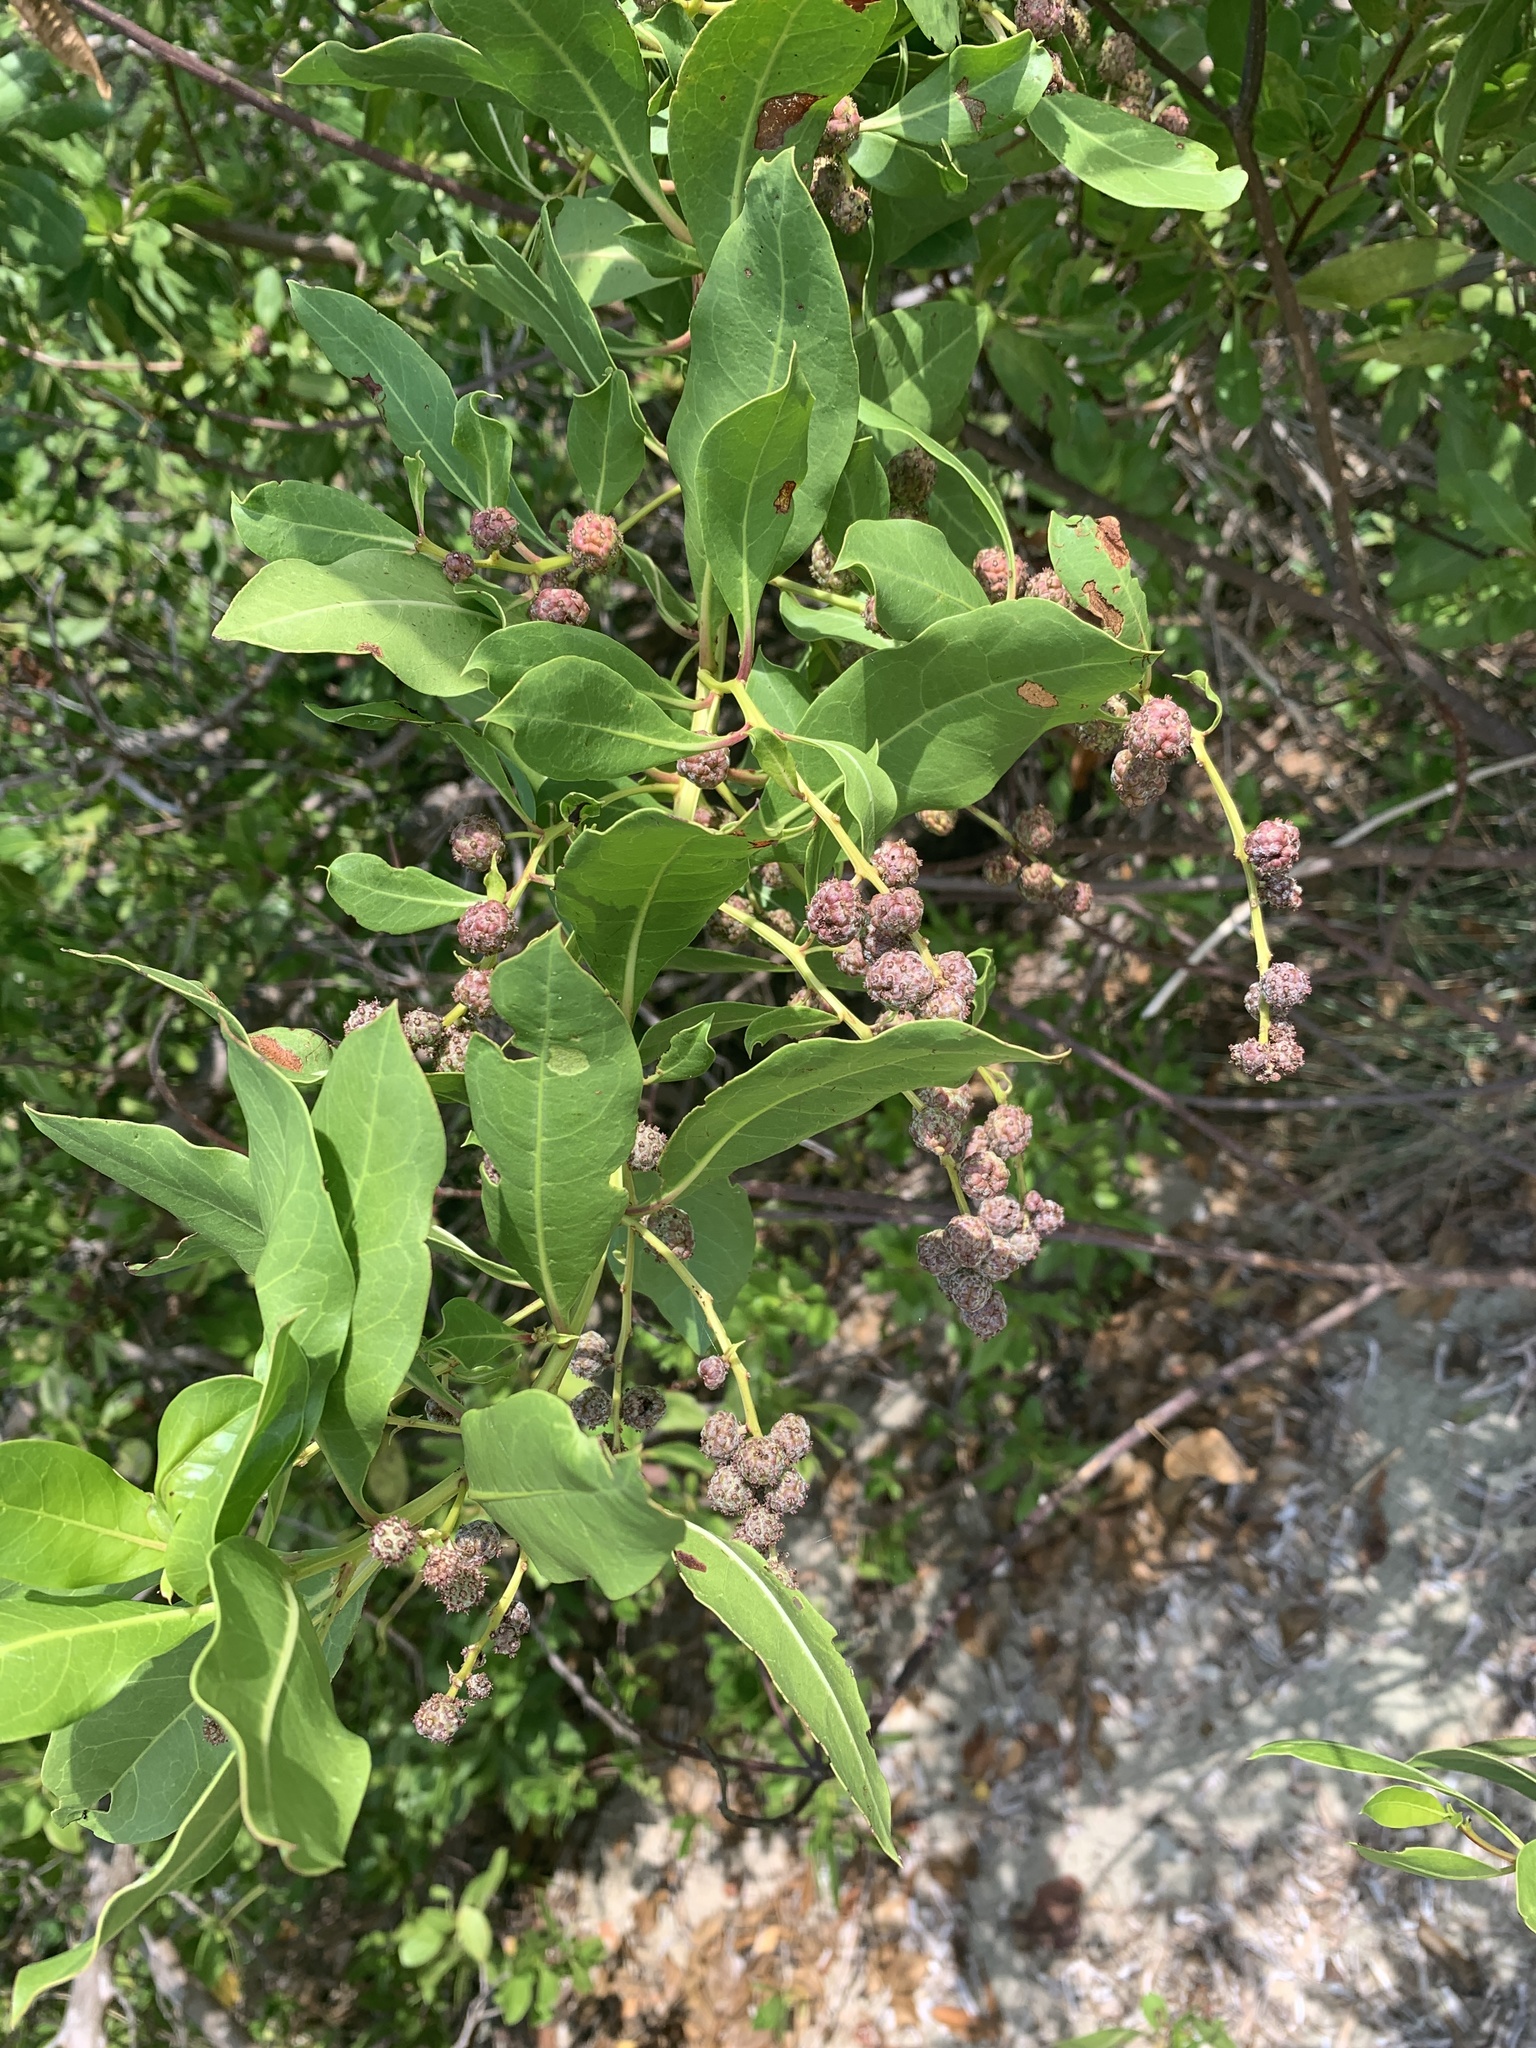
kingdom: Plantae
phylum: Tracheophyta
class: Magnoliopsida
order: Myrtales
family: Combretaceae
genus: Conocarpus
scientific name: Conocarpus erectus
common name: Button mangrove
